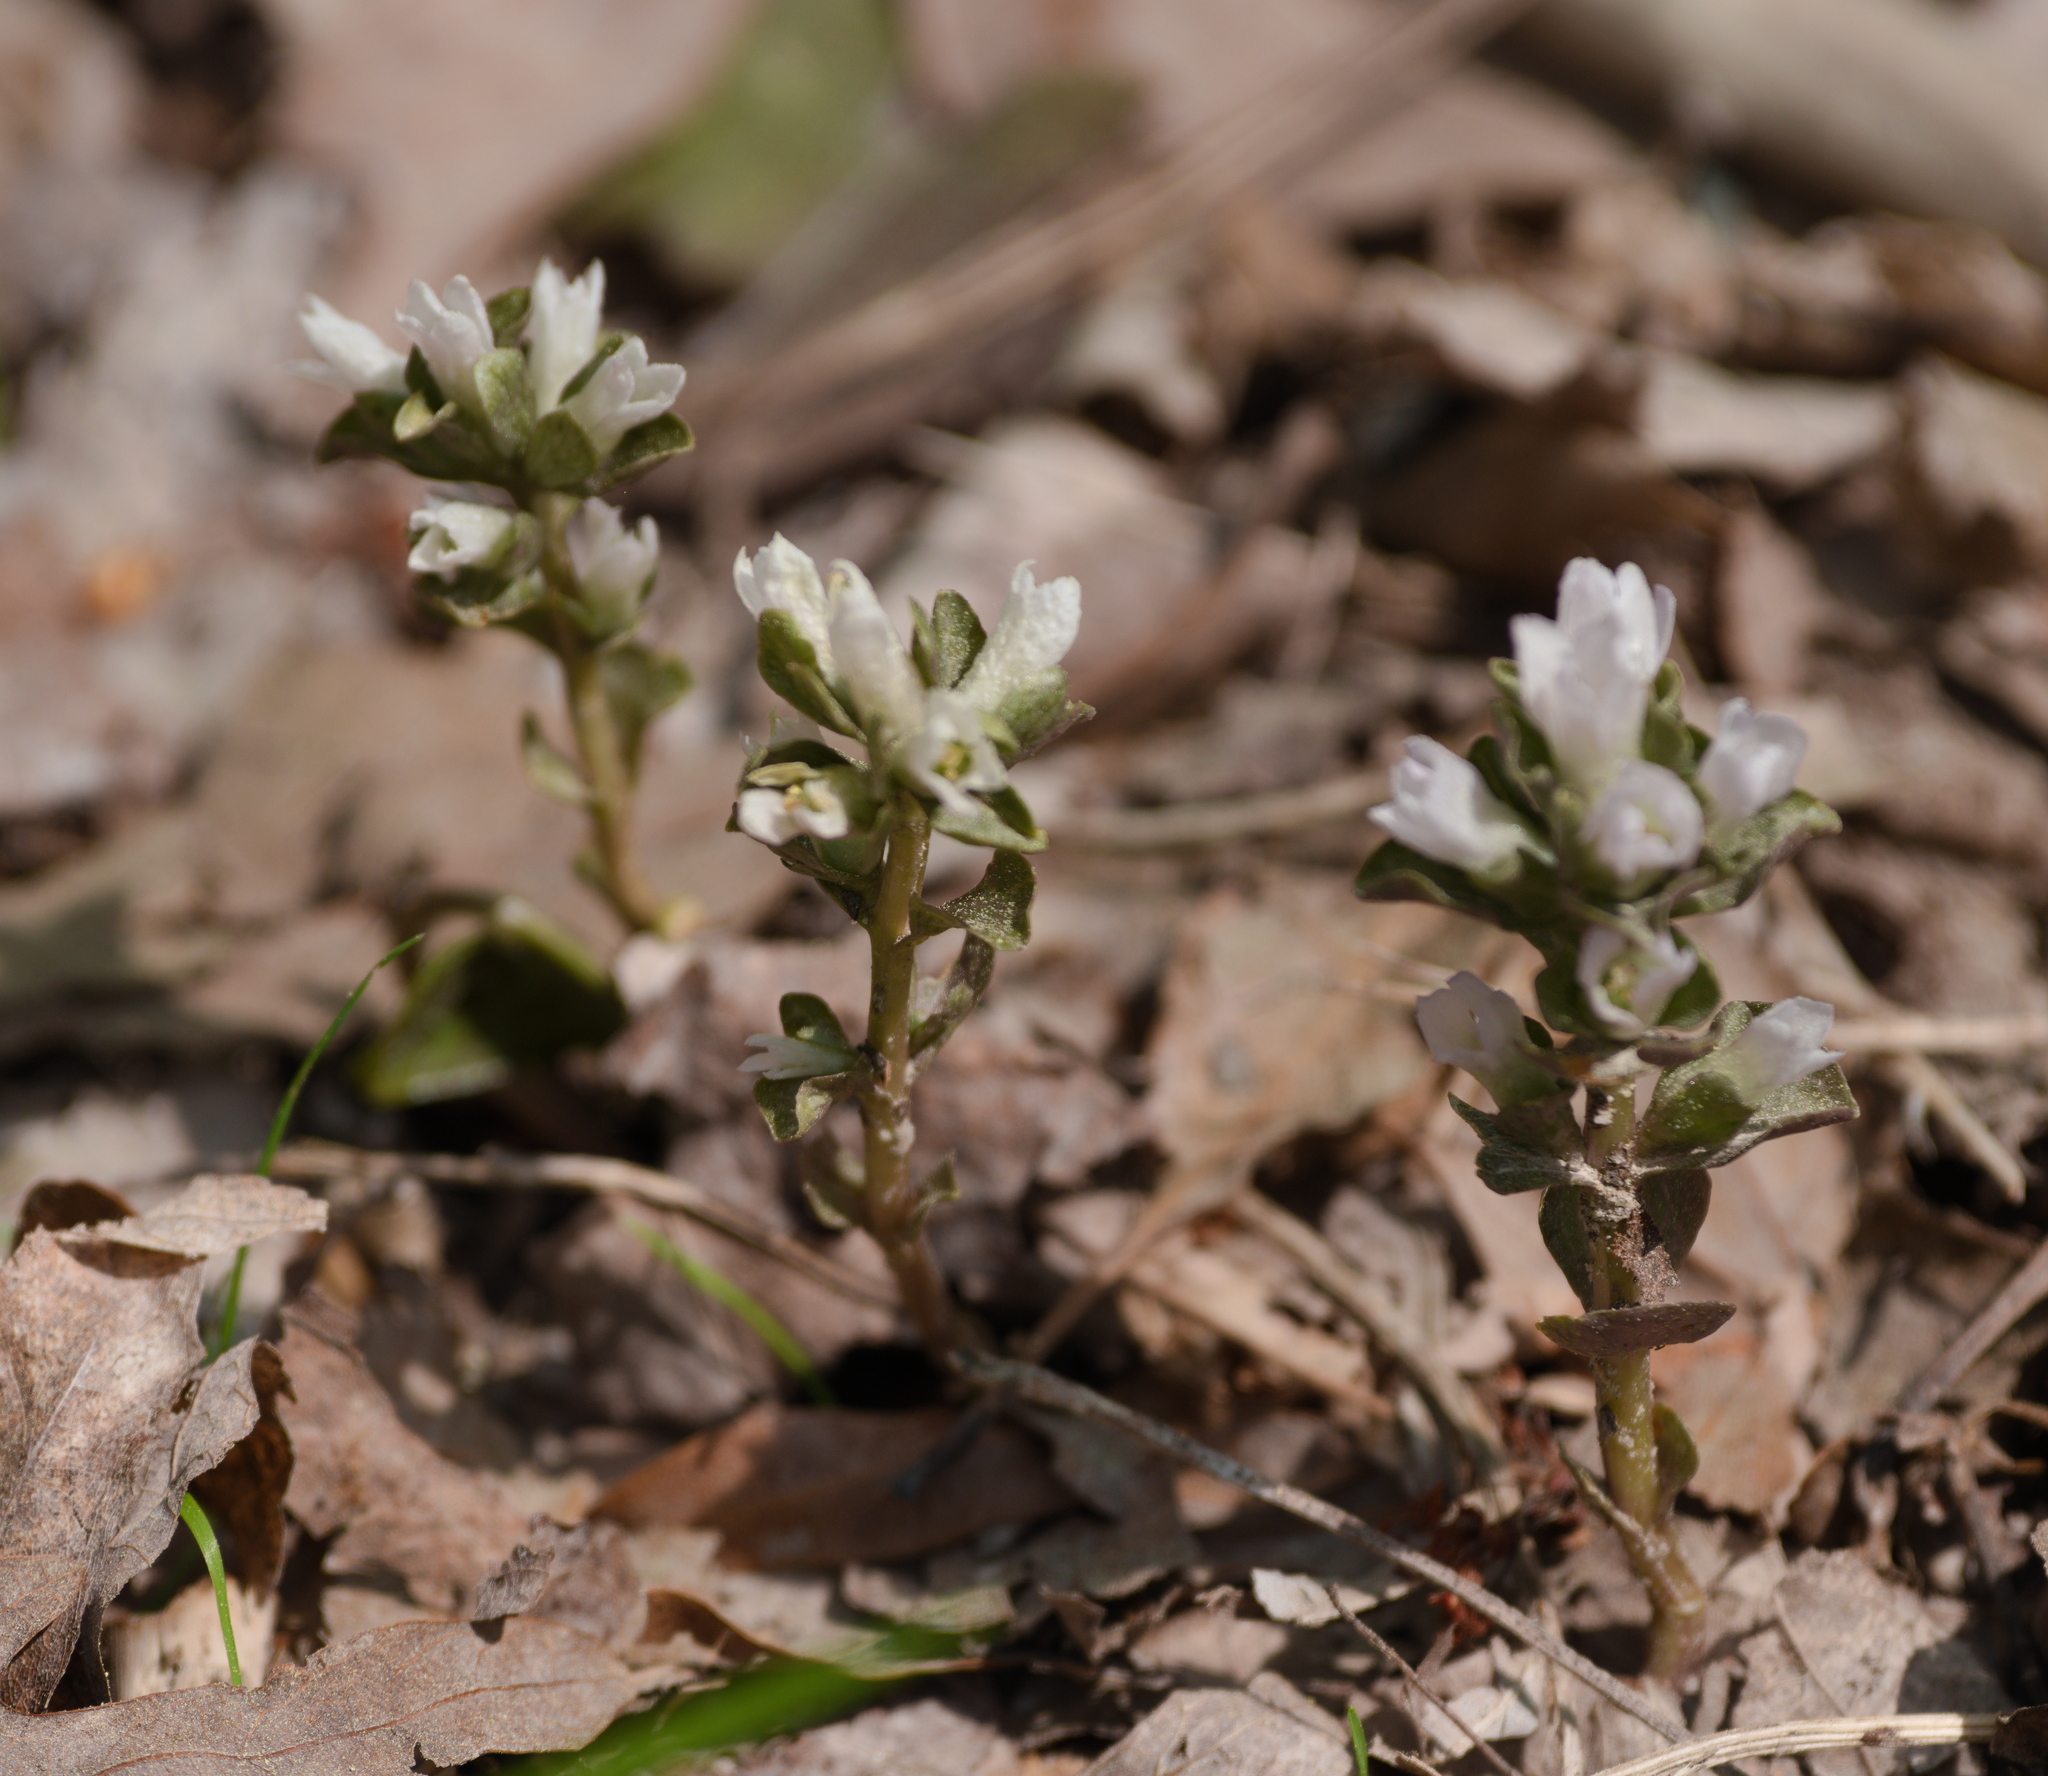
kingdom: Plantae
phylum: Tracheophyta
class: Magnoliopsida
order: Gentianales
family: Gentianaceae
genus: Obolaria
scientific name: Obolaria virginica
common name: Pennywort
